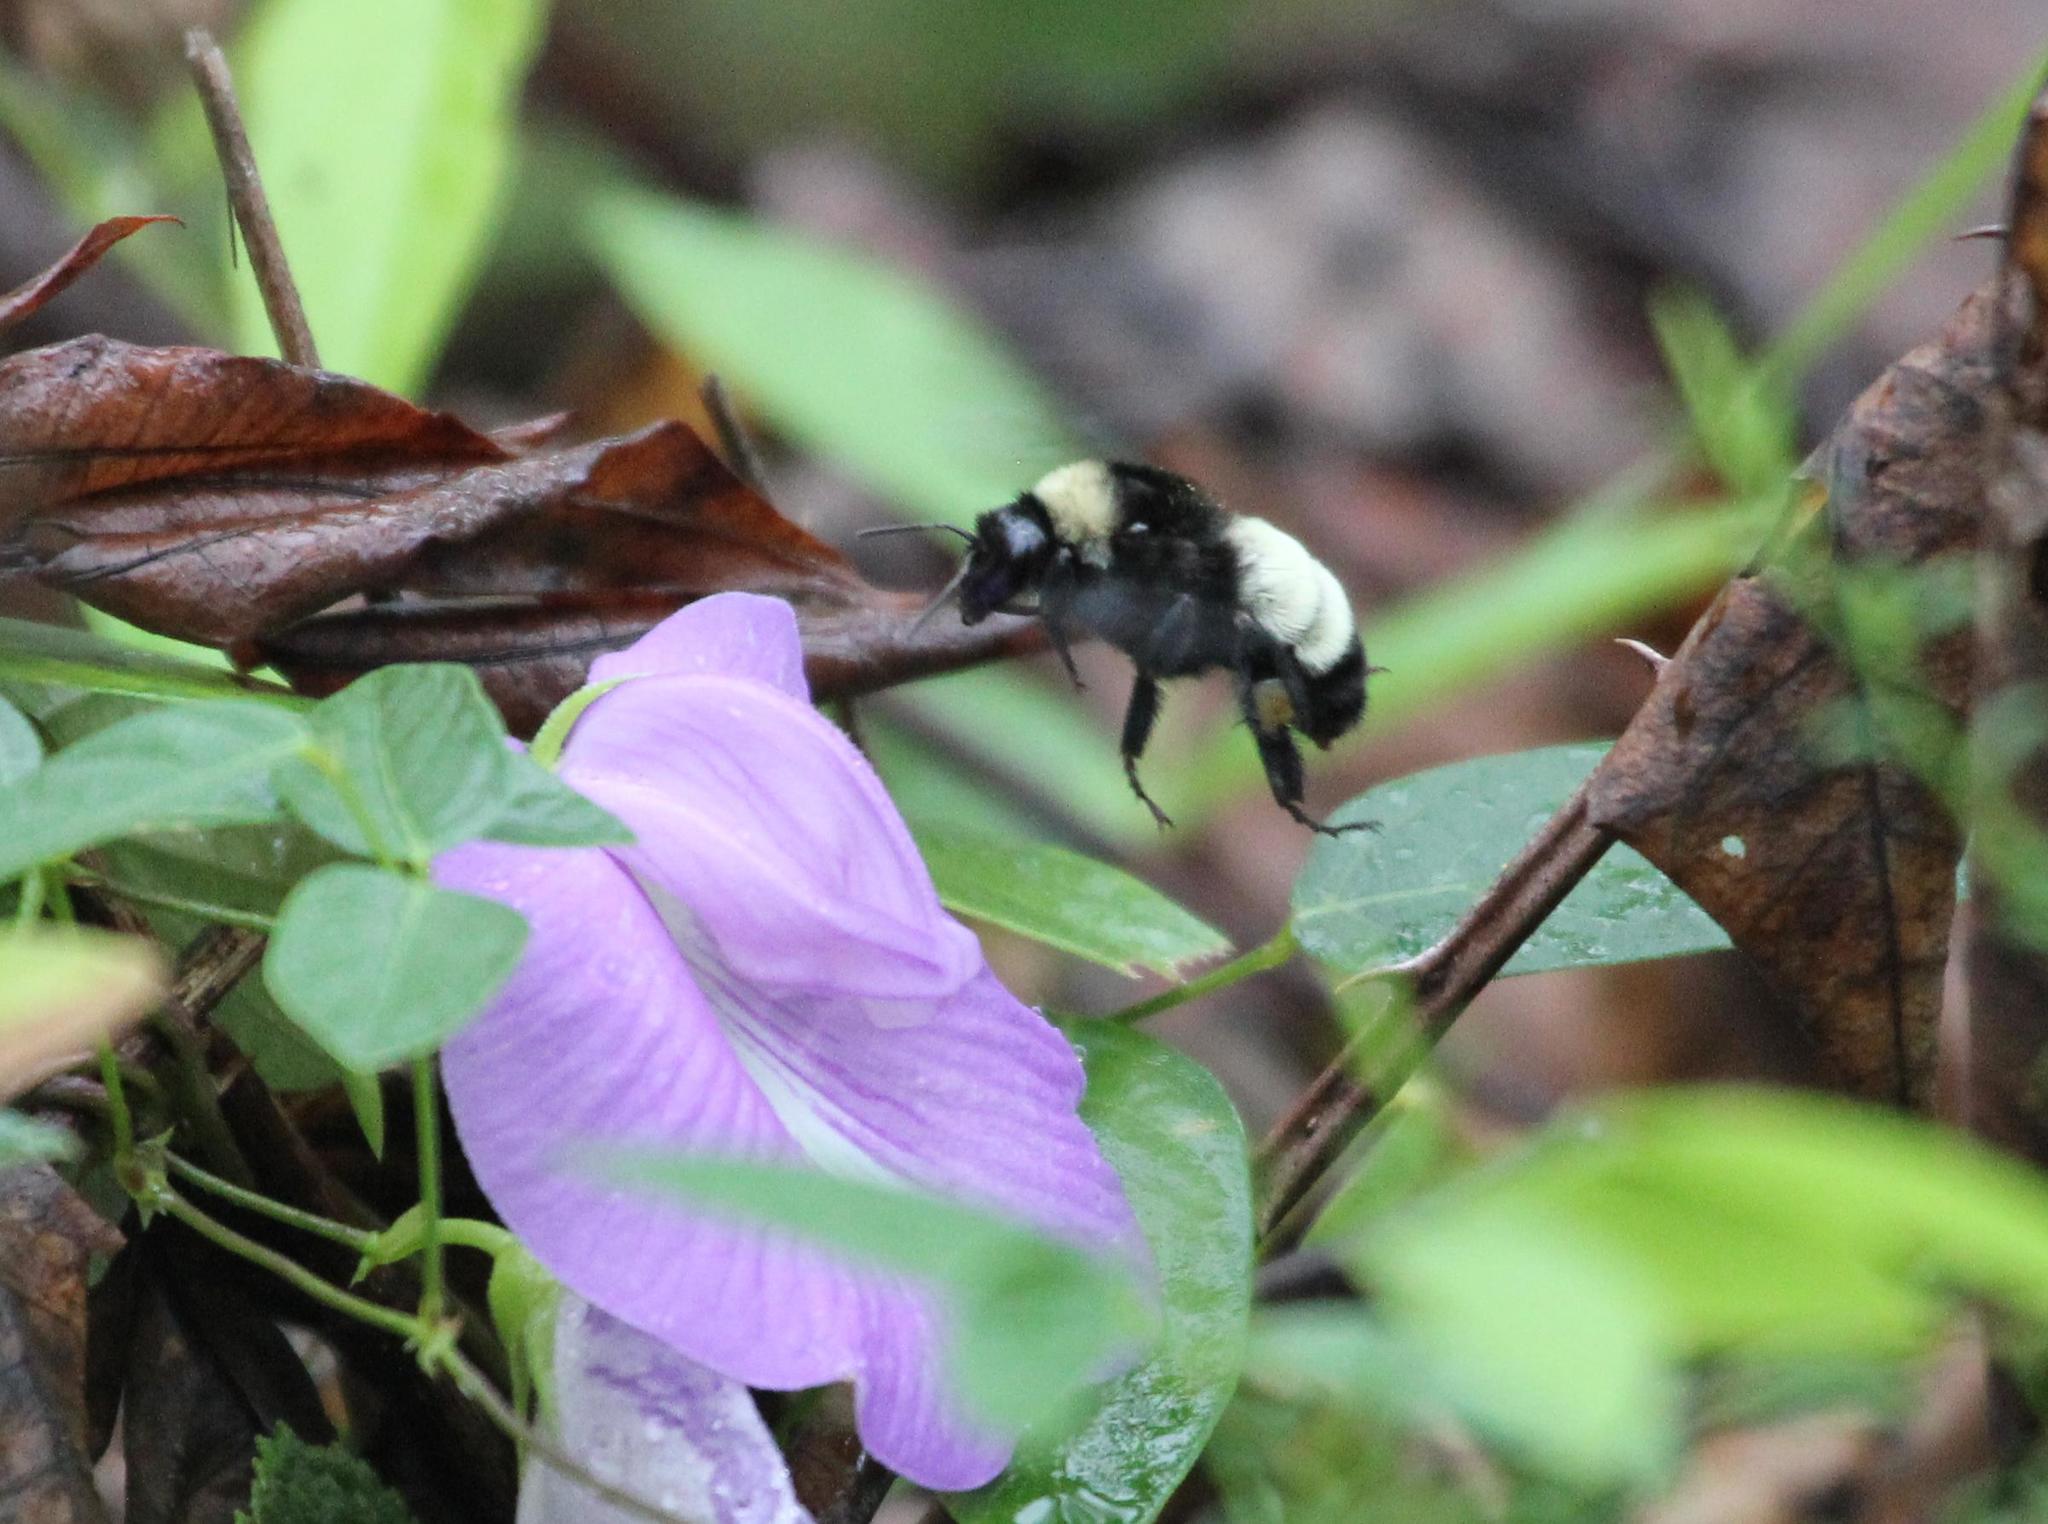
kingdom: Animalia
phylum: Arthropoda
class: Insecta
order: Hymenoptera
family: Apidae
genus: Bombus
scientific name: Bombus pensylvanicus
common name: Bumble bee
